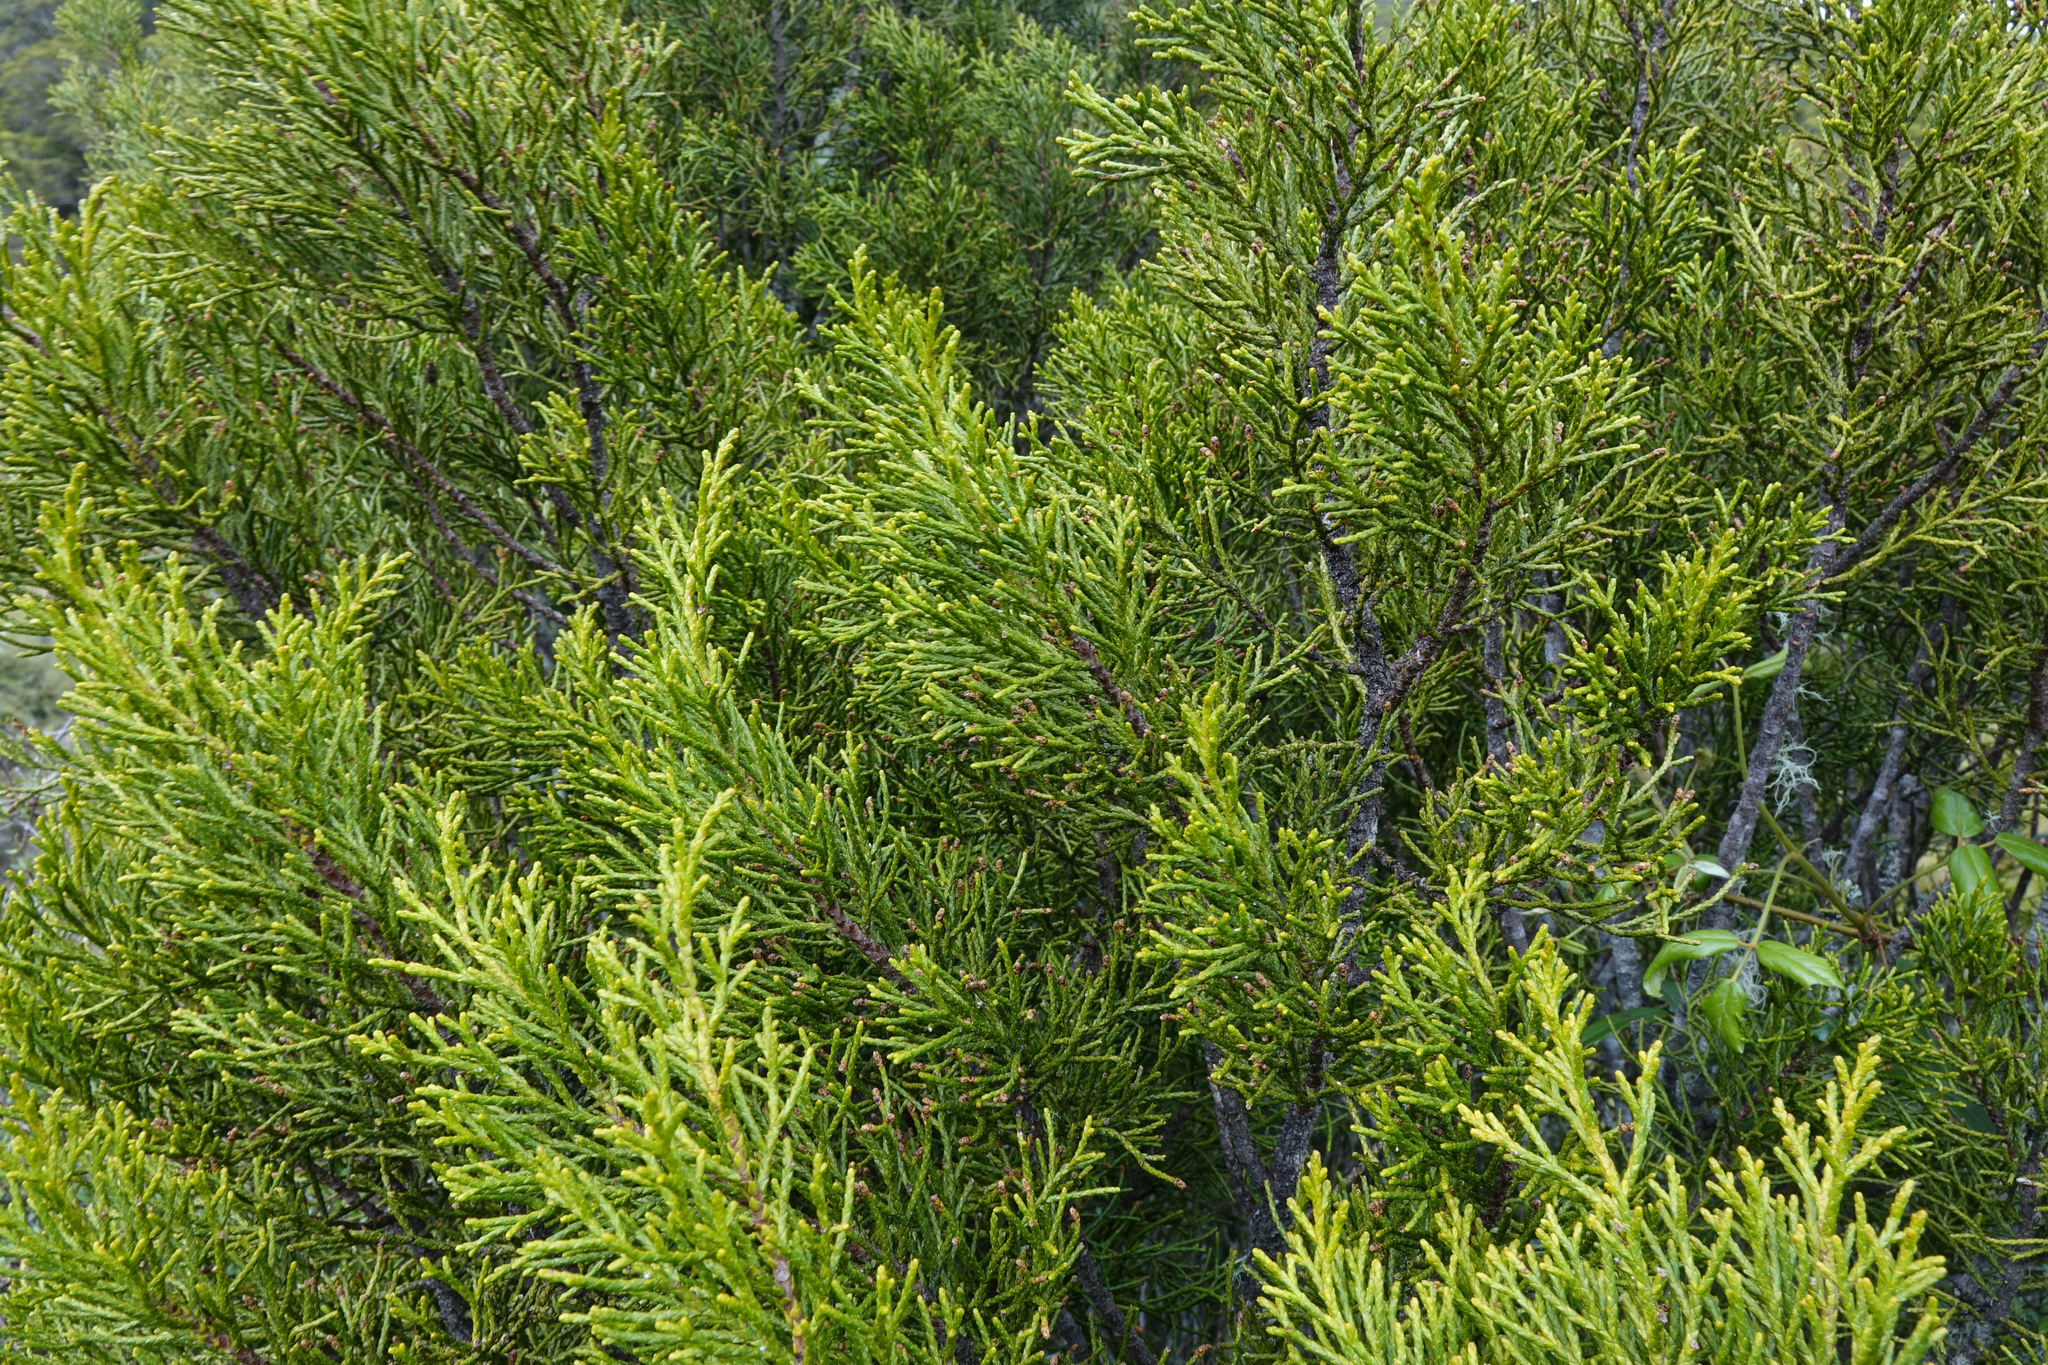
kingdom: Plantae
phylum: Tracheophyta
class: Pinopsida
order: Pinales
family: Podocarpaceae
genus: Halocarpus
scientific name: Halocarpus bidwillii
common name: Bog pine
